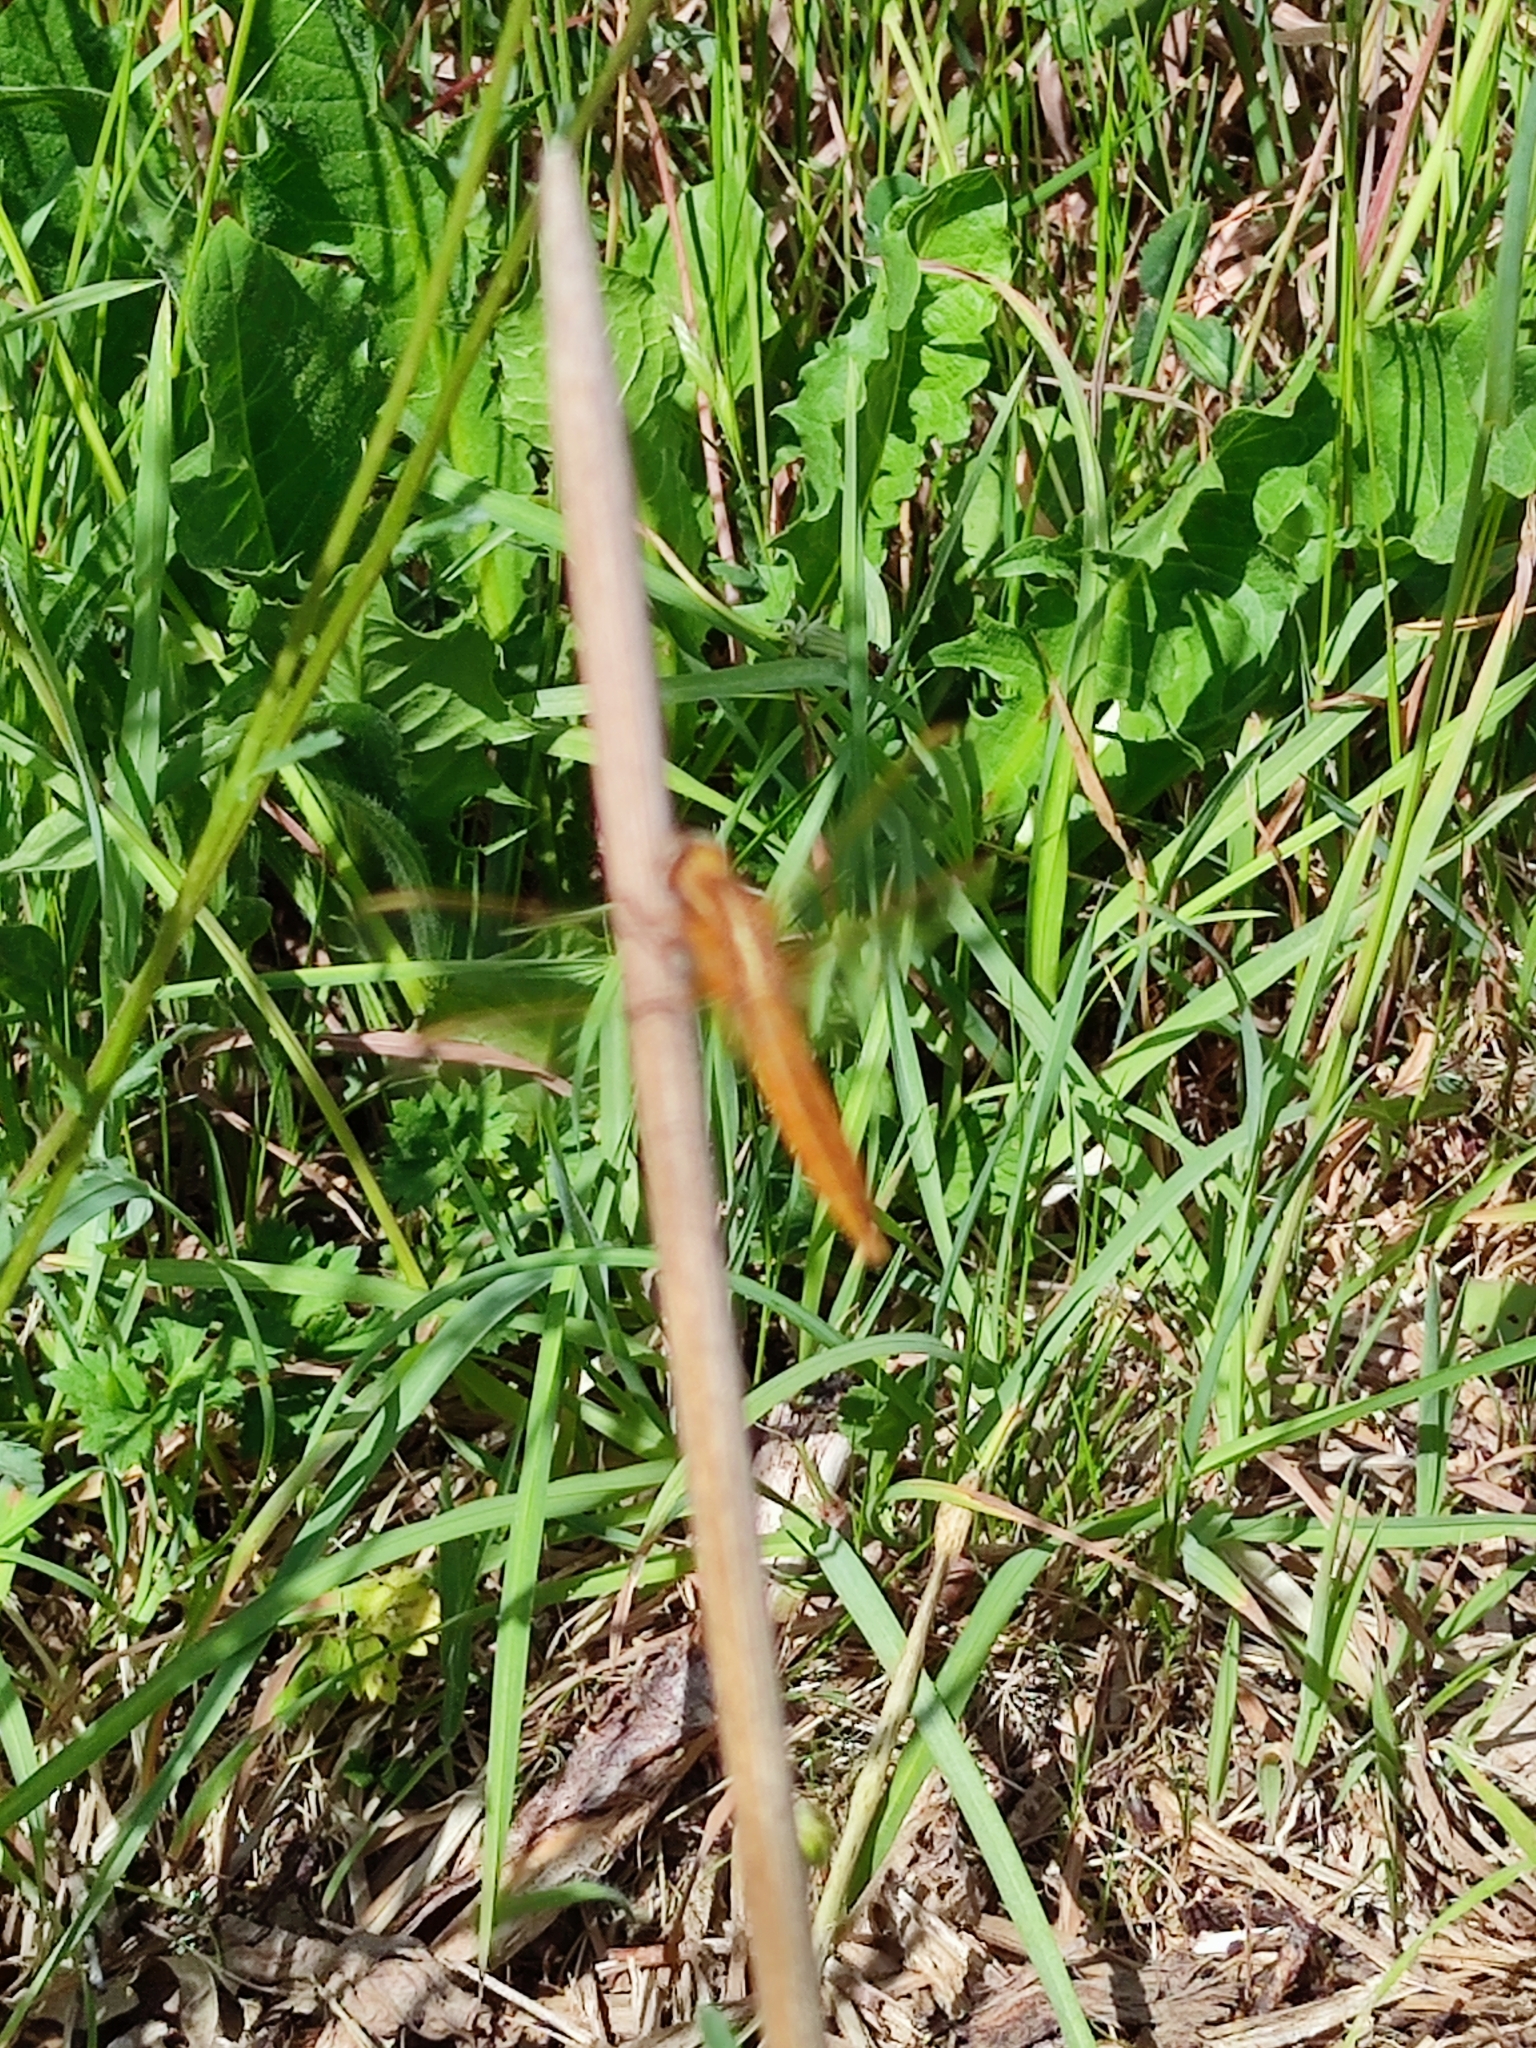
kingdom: Animalia
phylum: Arthropoda
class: Insecta
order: Odonata
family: Libellulidae
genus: Crocothemis
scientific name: Crocothemis erythraea
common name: Scarlet dragonfly
